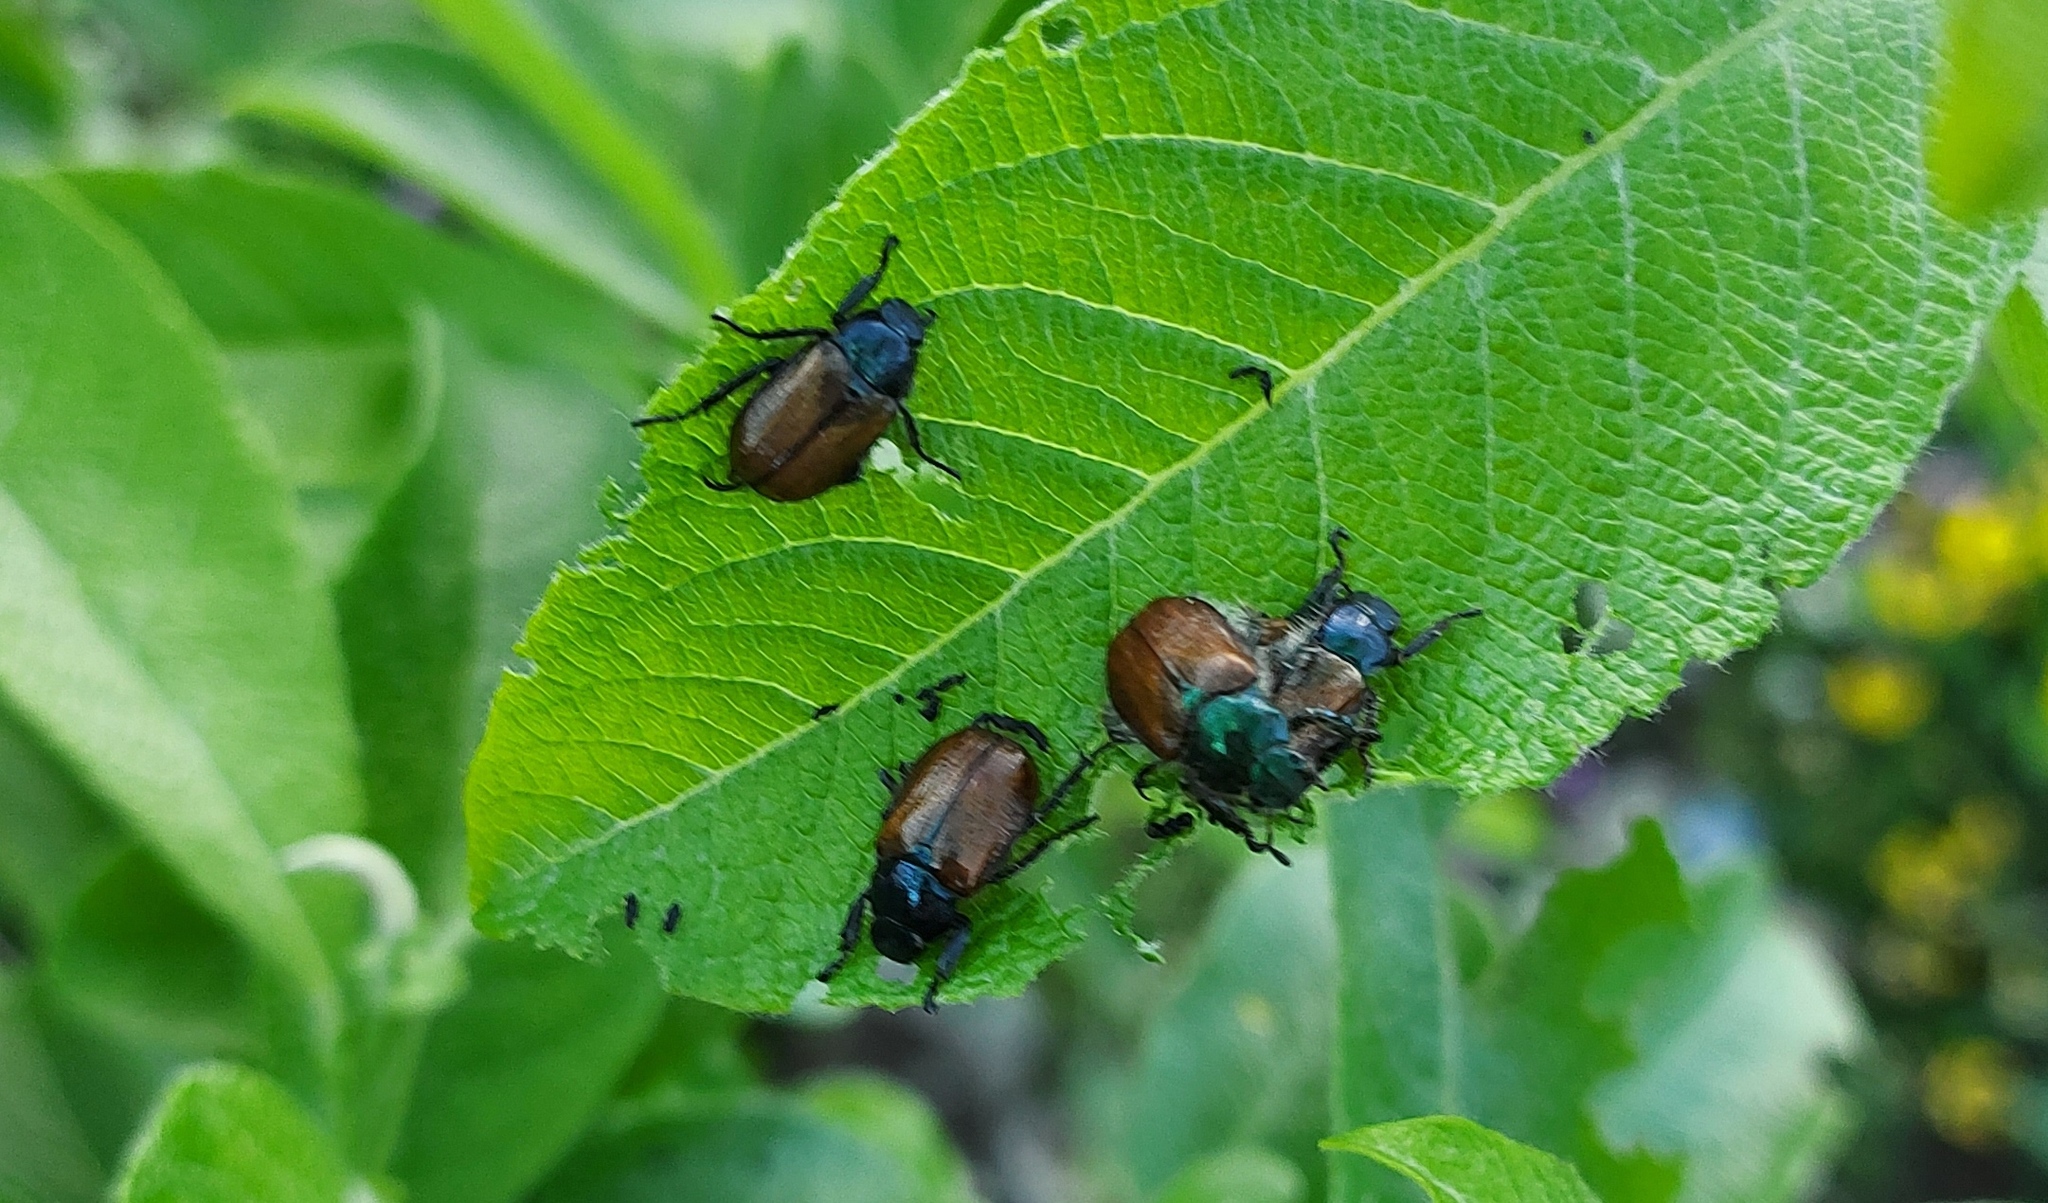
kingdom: Animalia
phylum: Arthropoda
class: Insecta
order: Coleoptera
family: Scarabaeidae
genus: Phyllopertha
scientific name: Phyllopertha horticola
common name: Garden chafer
